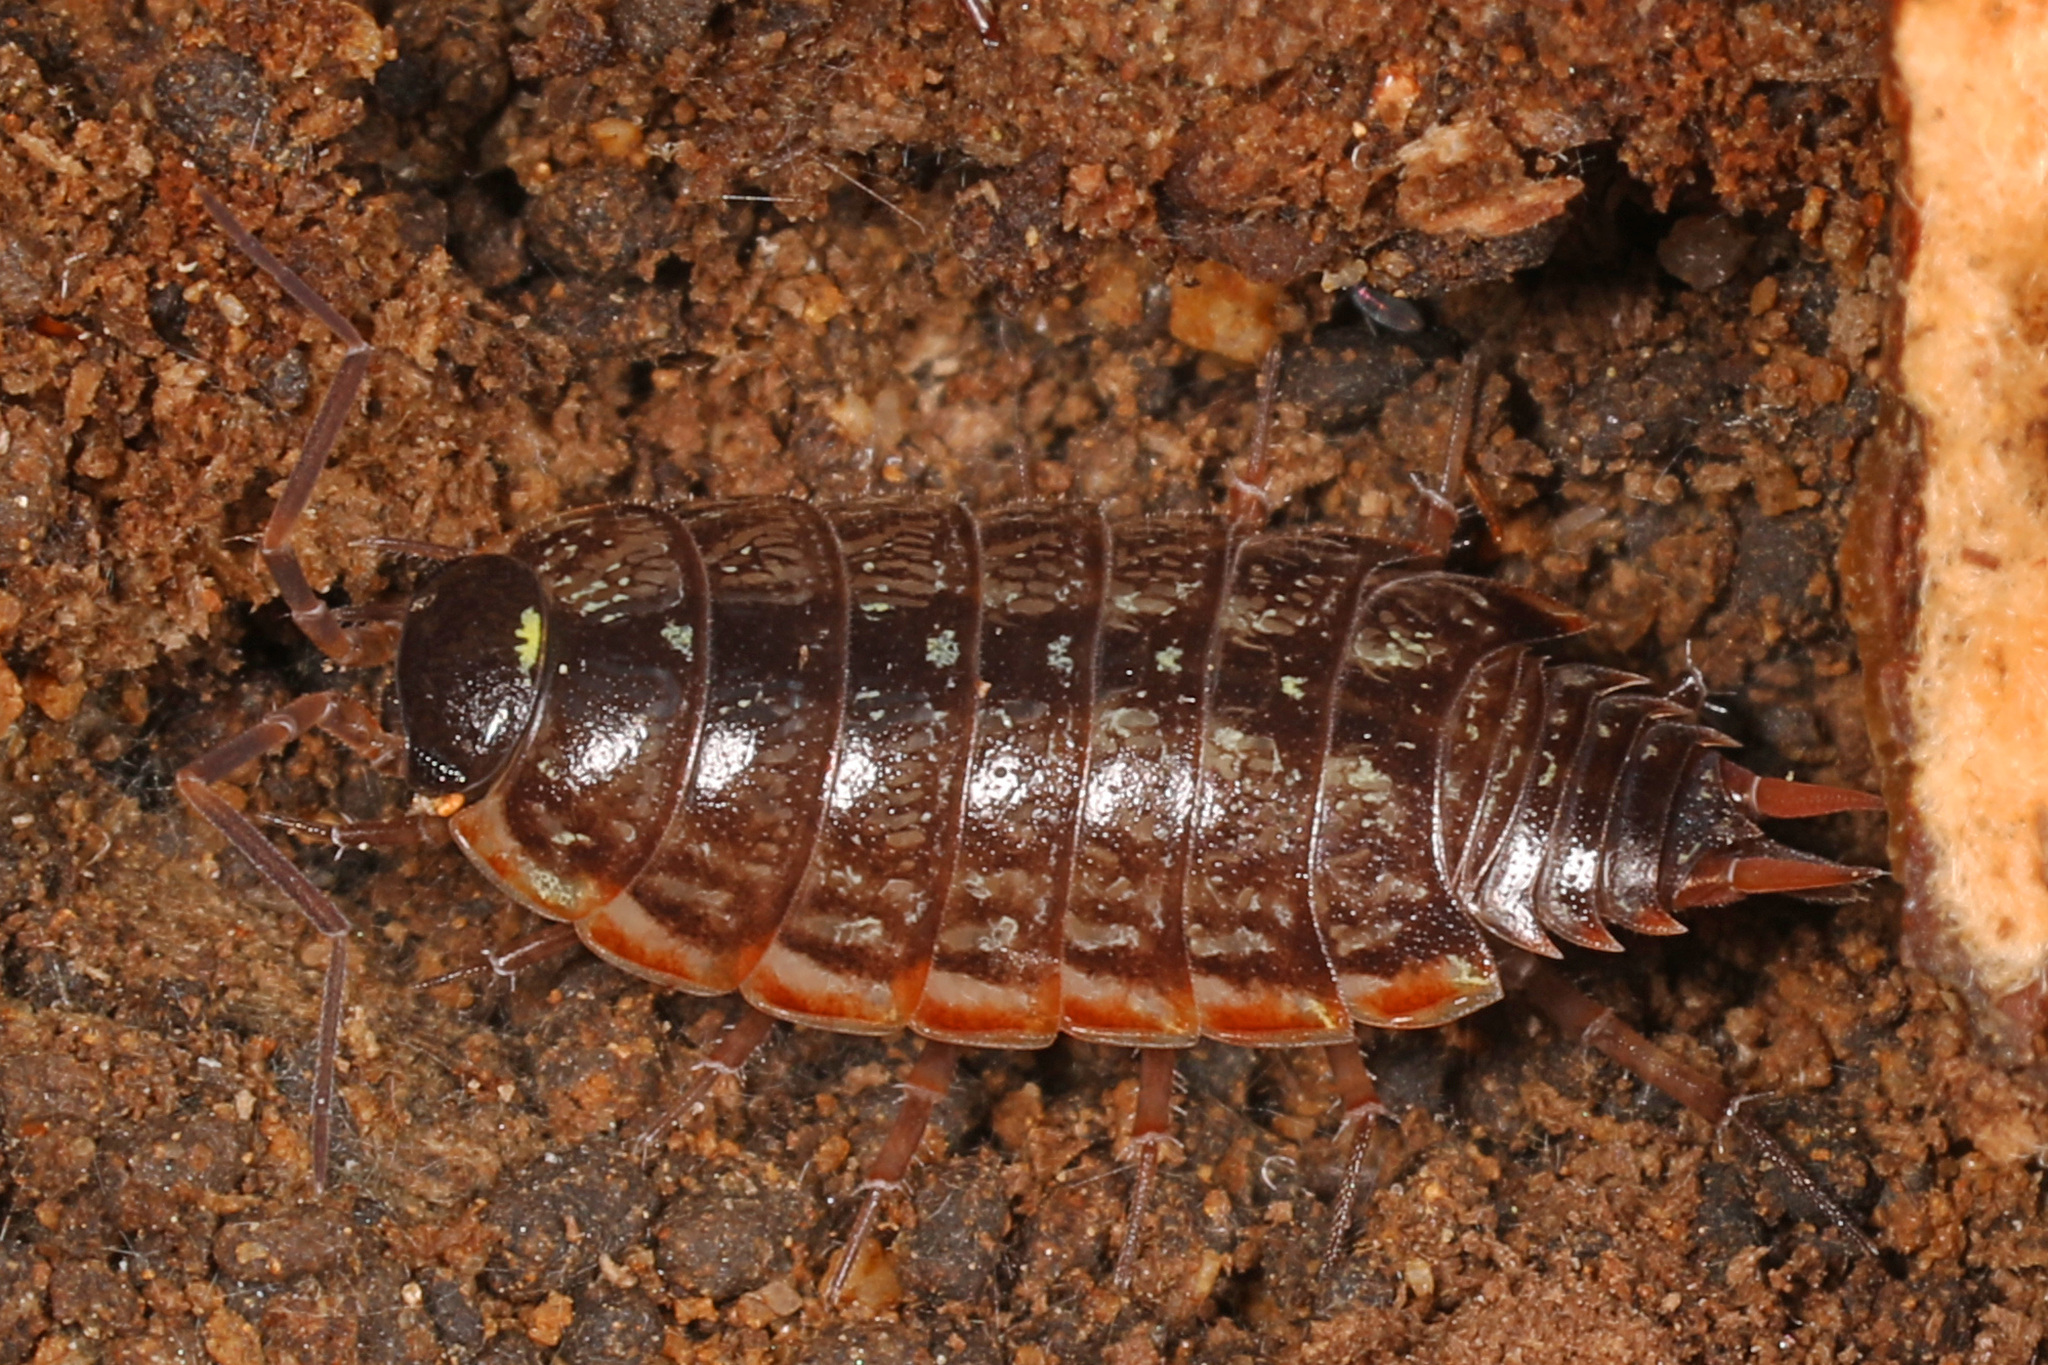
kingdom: Animalia
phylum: Arthropoda
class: Malacostraca
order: Isopoda
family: Philosciidae
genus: Philoscia
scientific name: Philoscia muscorum
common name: Common striped woodlouse
